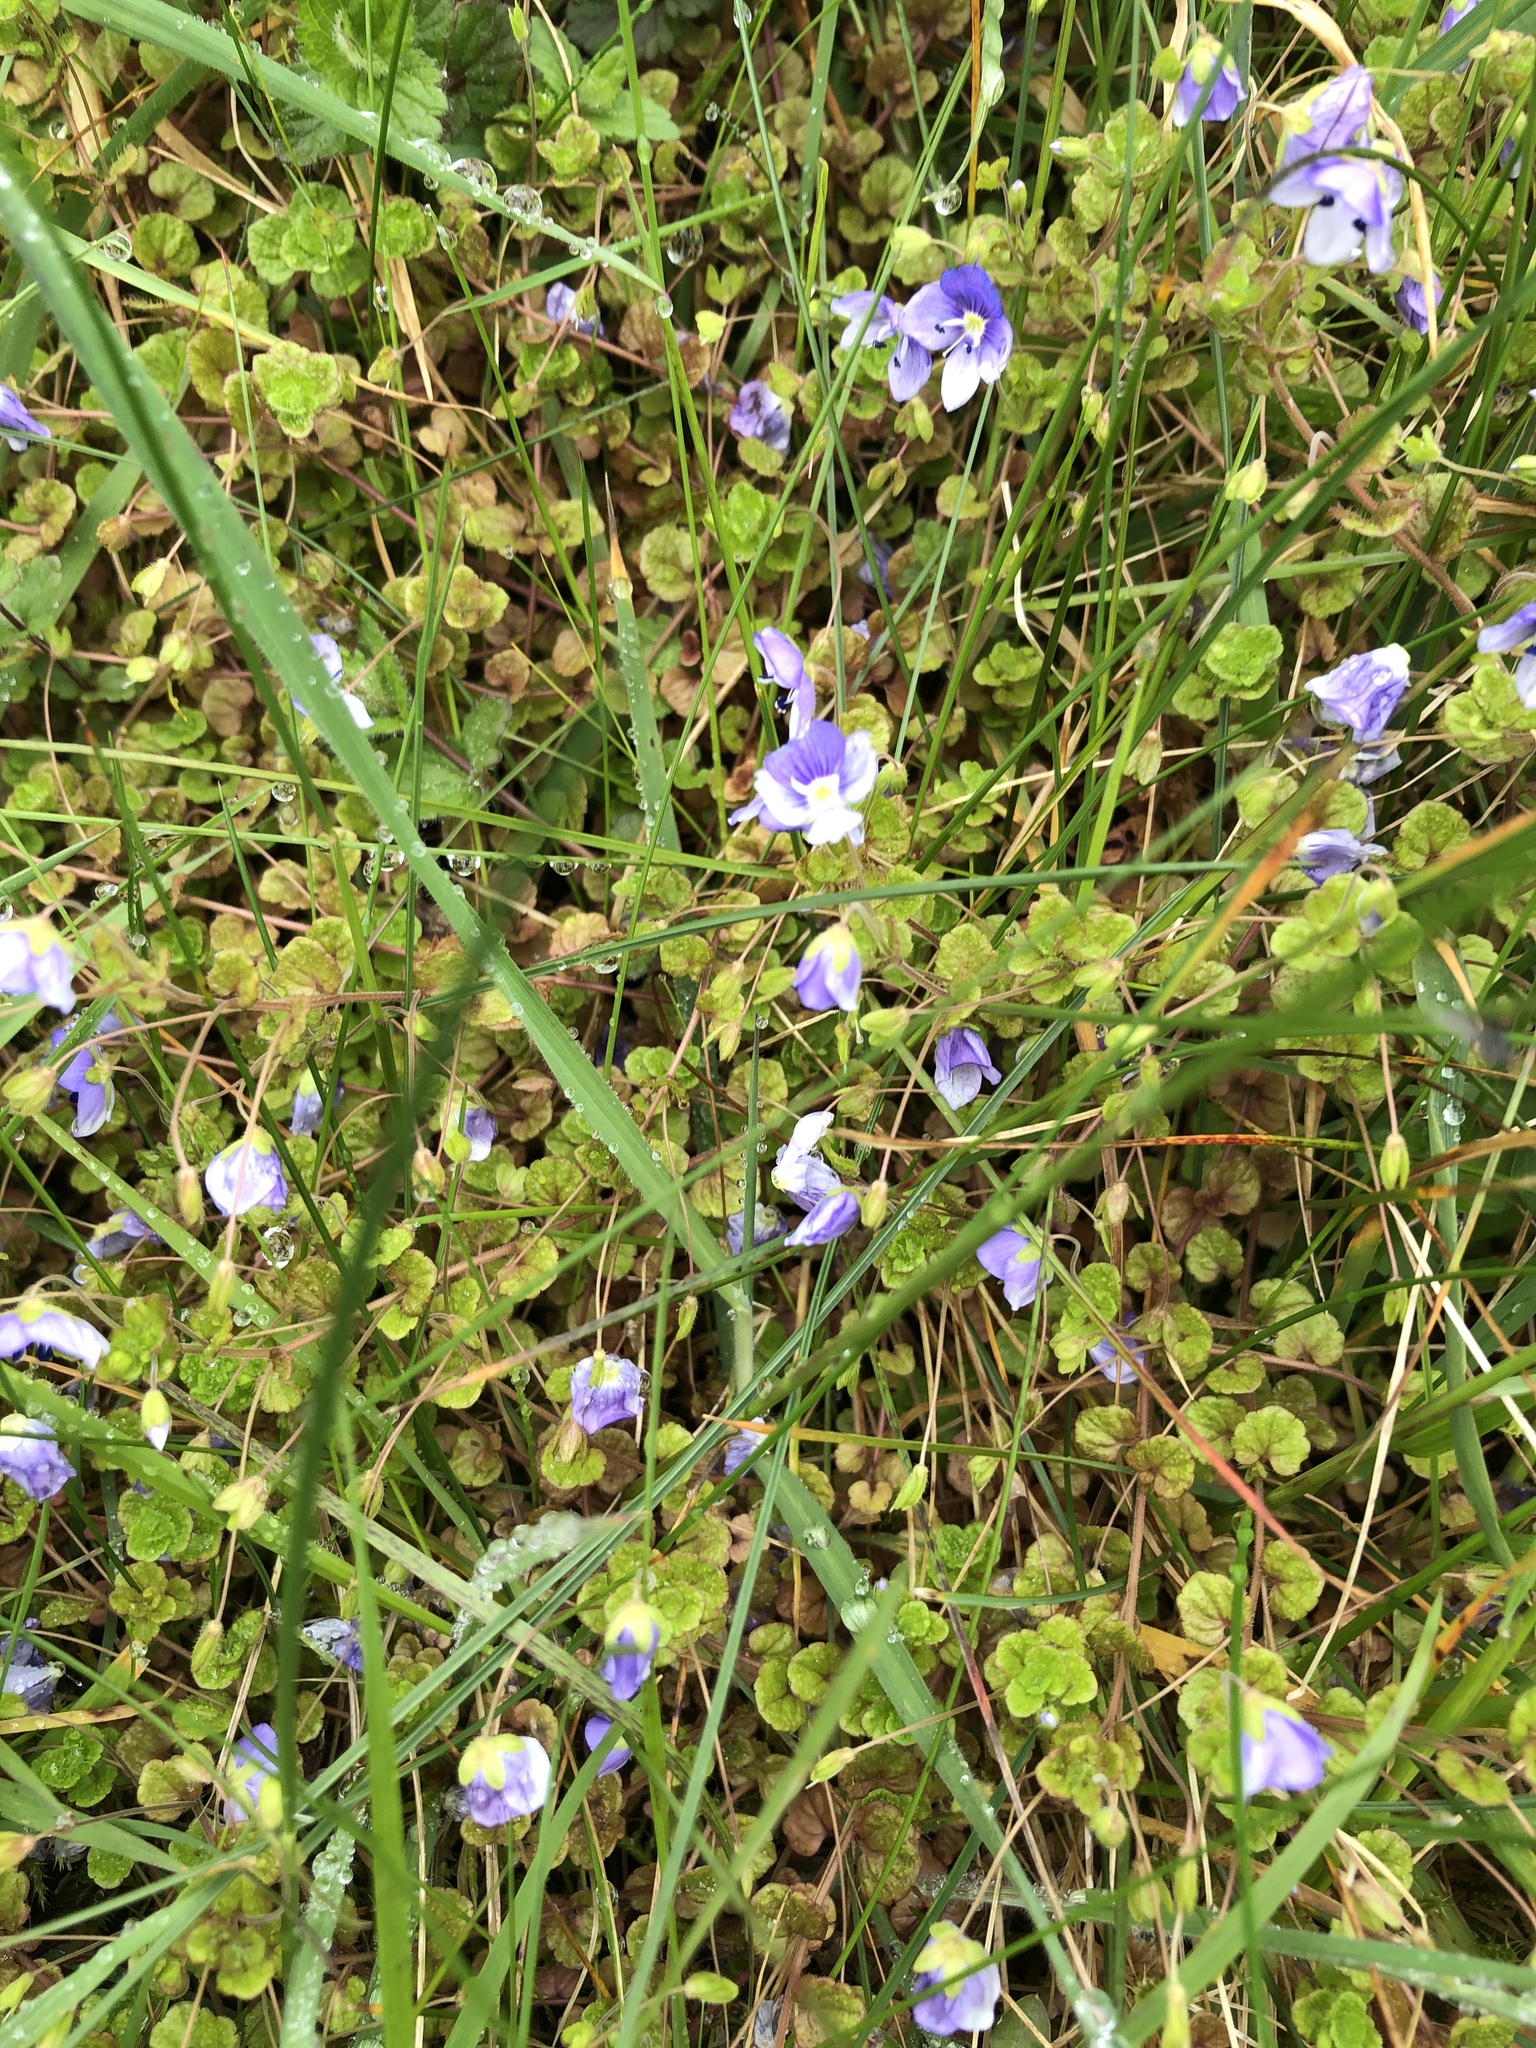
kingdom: Plantae
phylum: Tracheophyta
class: Magnoliopsida
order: Lamiales
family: Plantaginaceae
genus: Veronica
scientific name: Veronica filiformis
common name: Slender speedwell
